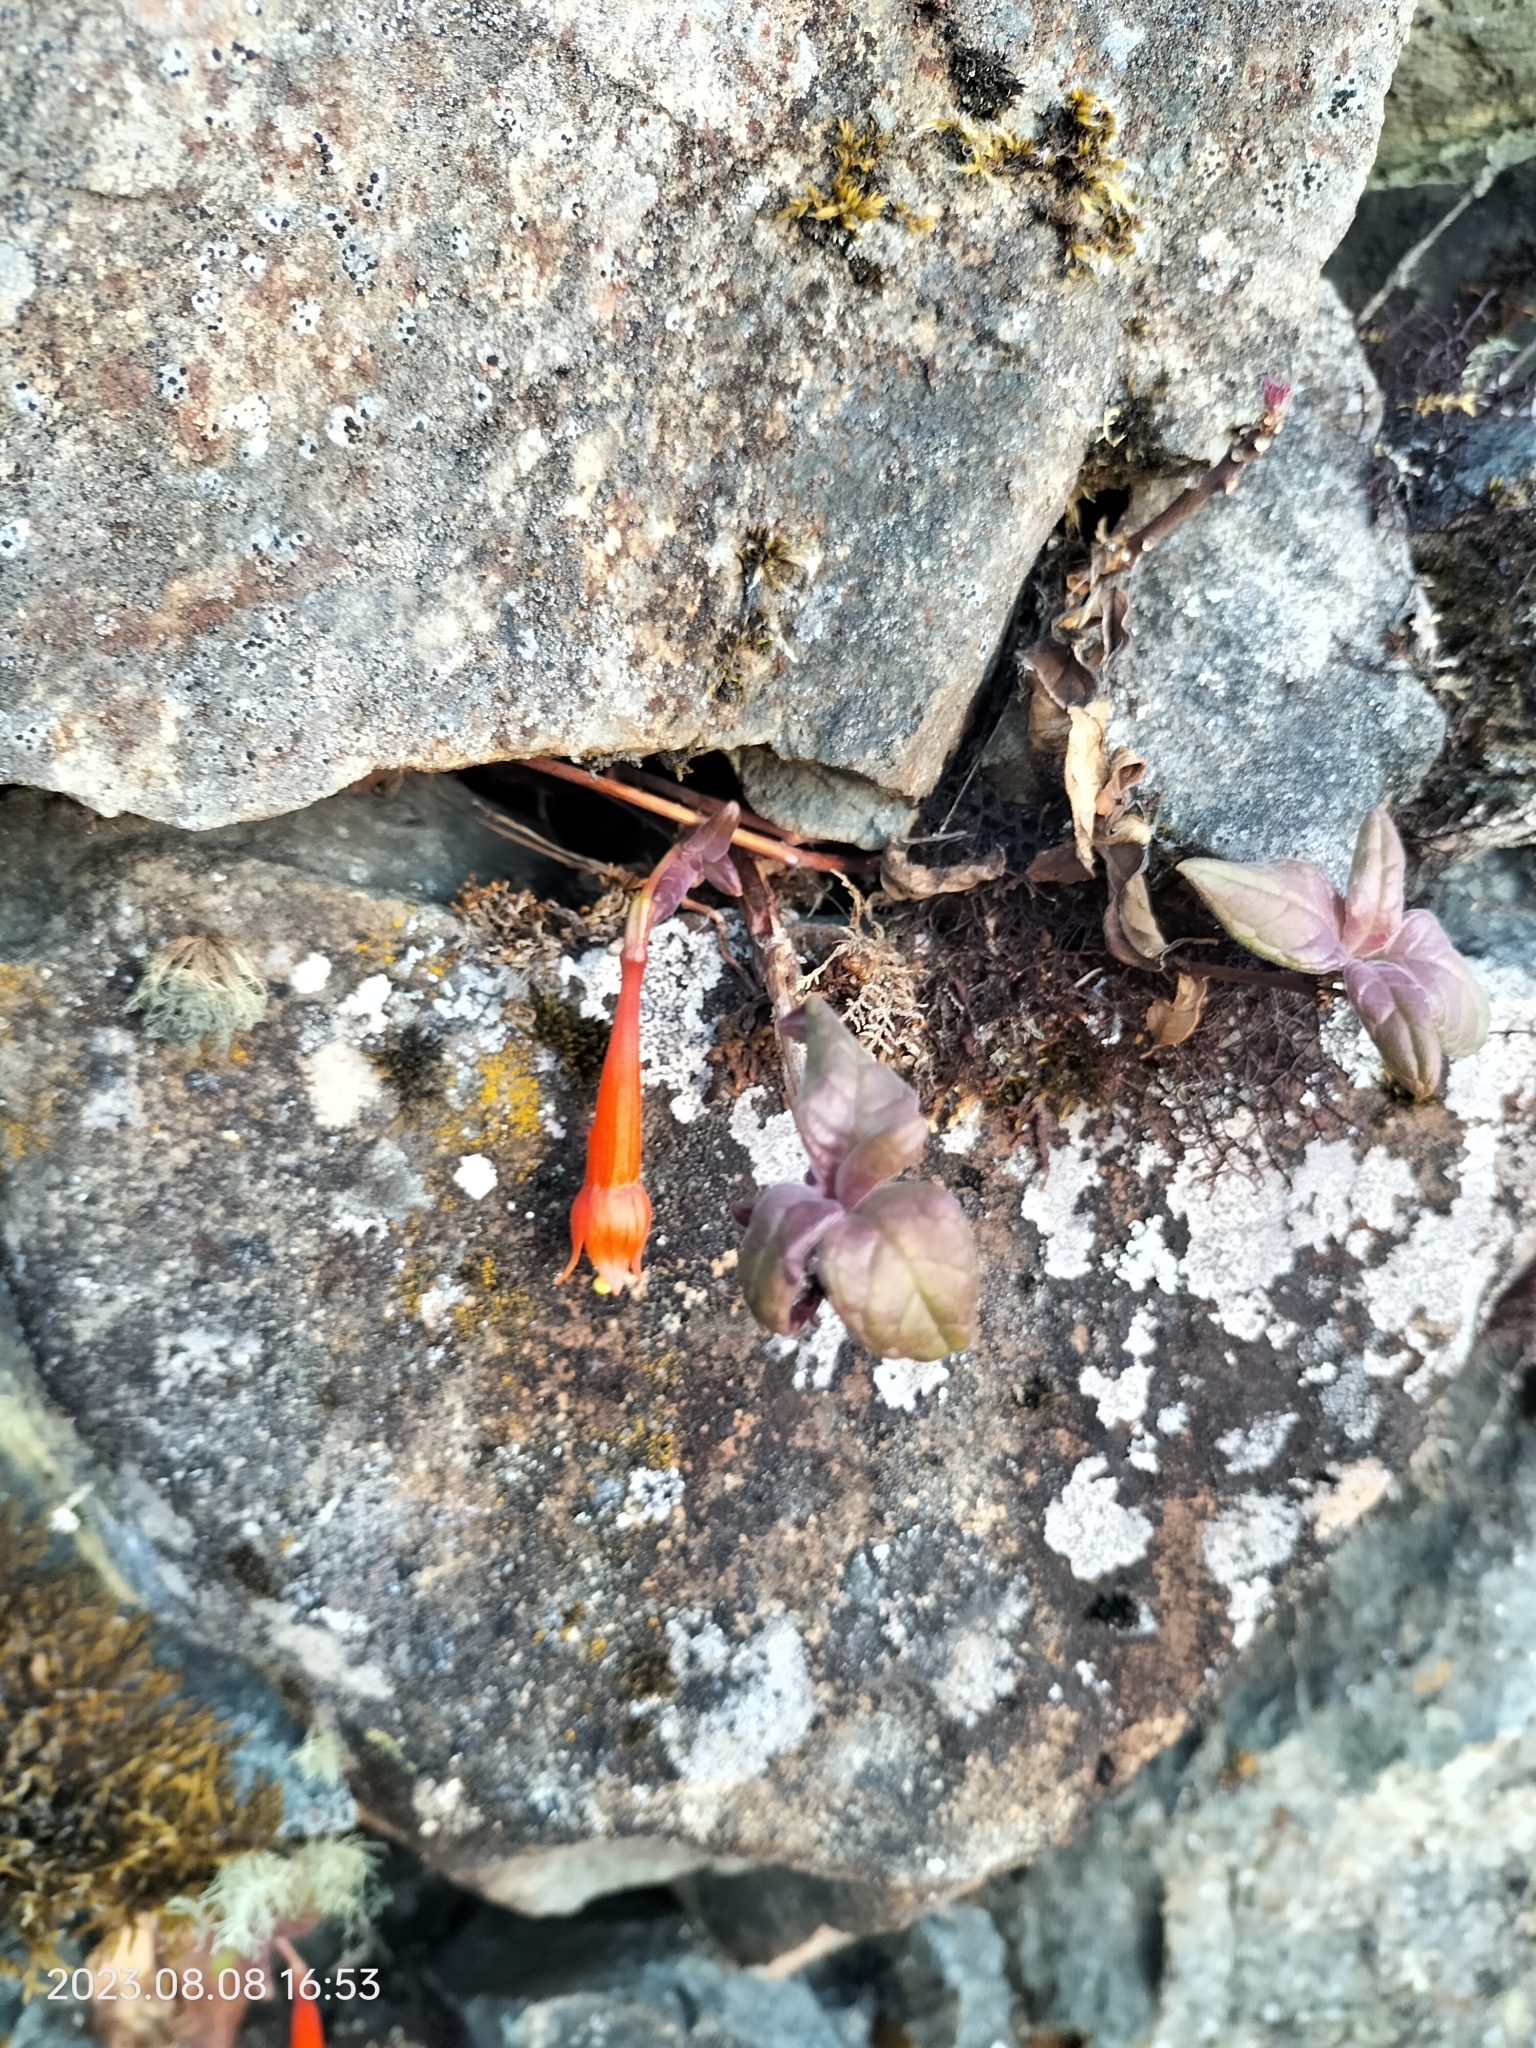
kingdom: Plantae
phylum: Tracheophyta
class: Magnoliopsida
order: Myrtales
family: Onagraceae
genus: Fuchsia
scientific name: Fuchsia apetala
